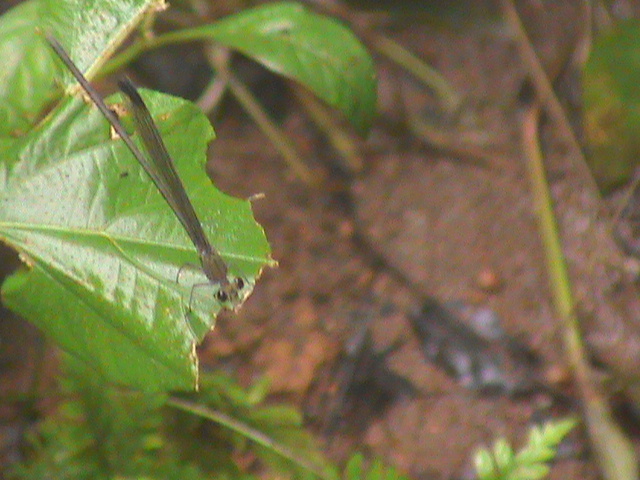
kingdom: Animalia
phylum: Arthropoda
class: Insecta
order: Odonata
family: Calopterygidae
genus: Vestalis
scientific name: Vestalis apicalis
